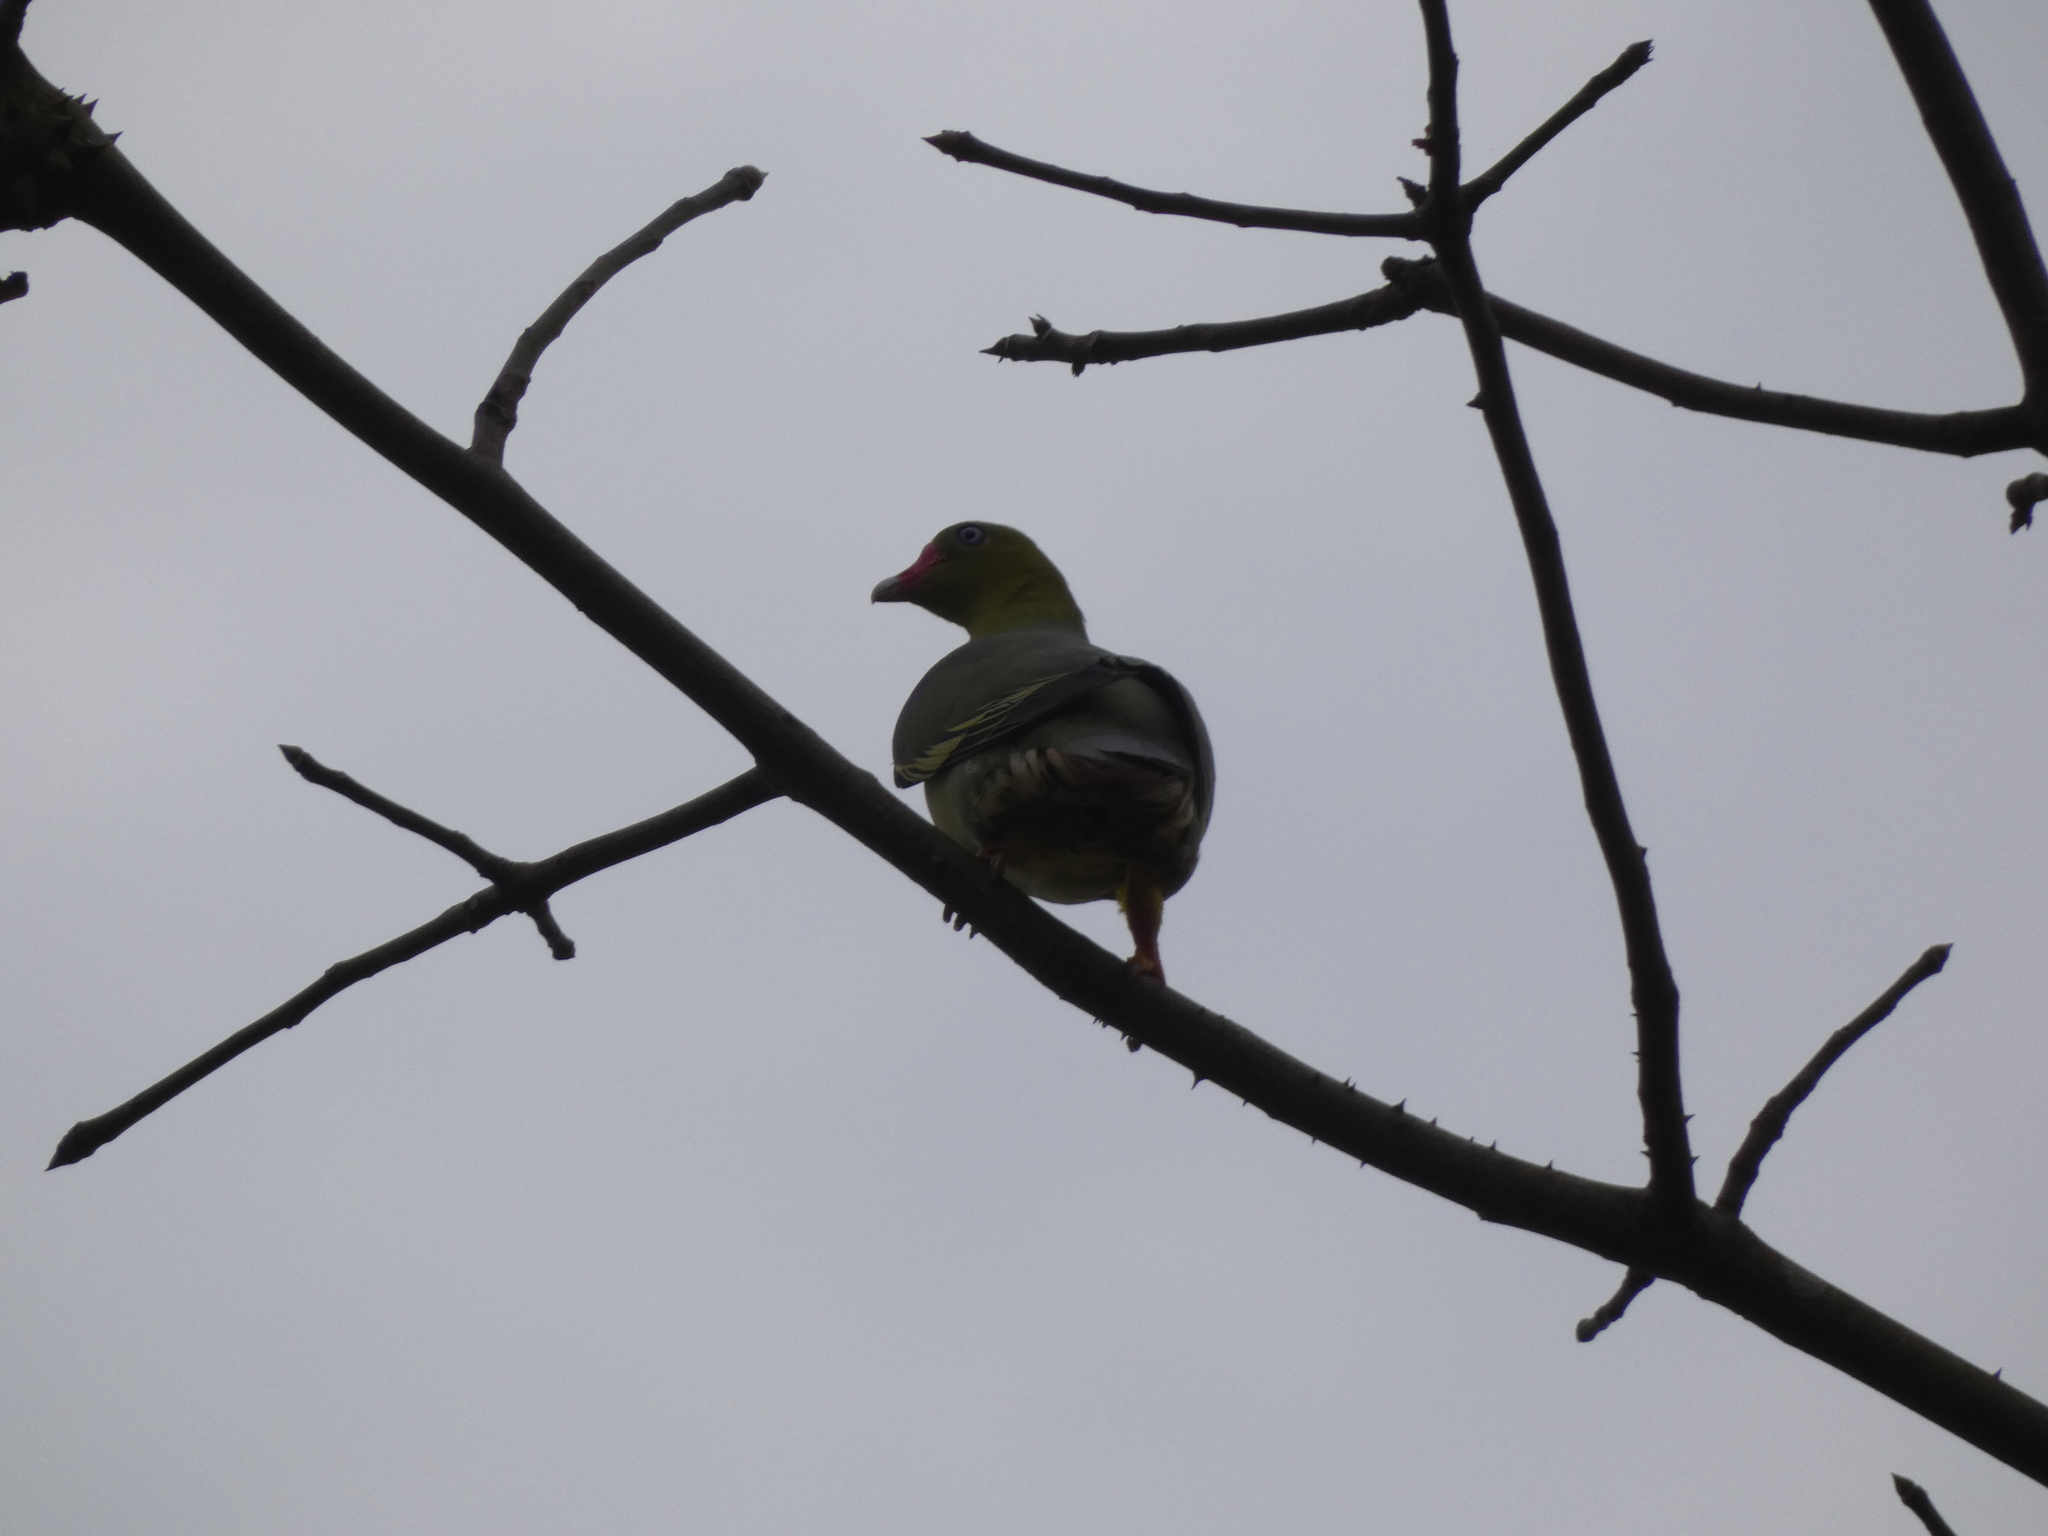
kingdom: Animalia
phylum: Chordata
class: Aves
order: Columbiformes
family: Columbidae
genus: Treron
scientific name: Treron calvus
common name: African green pigeon
